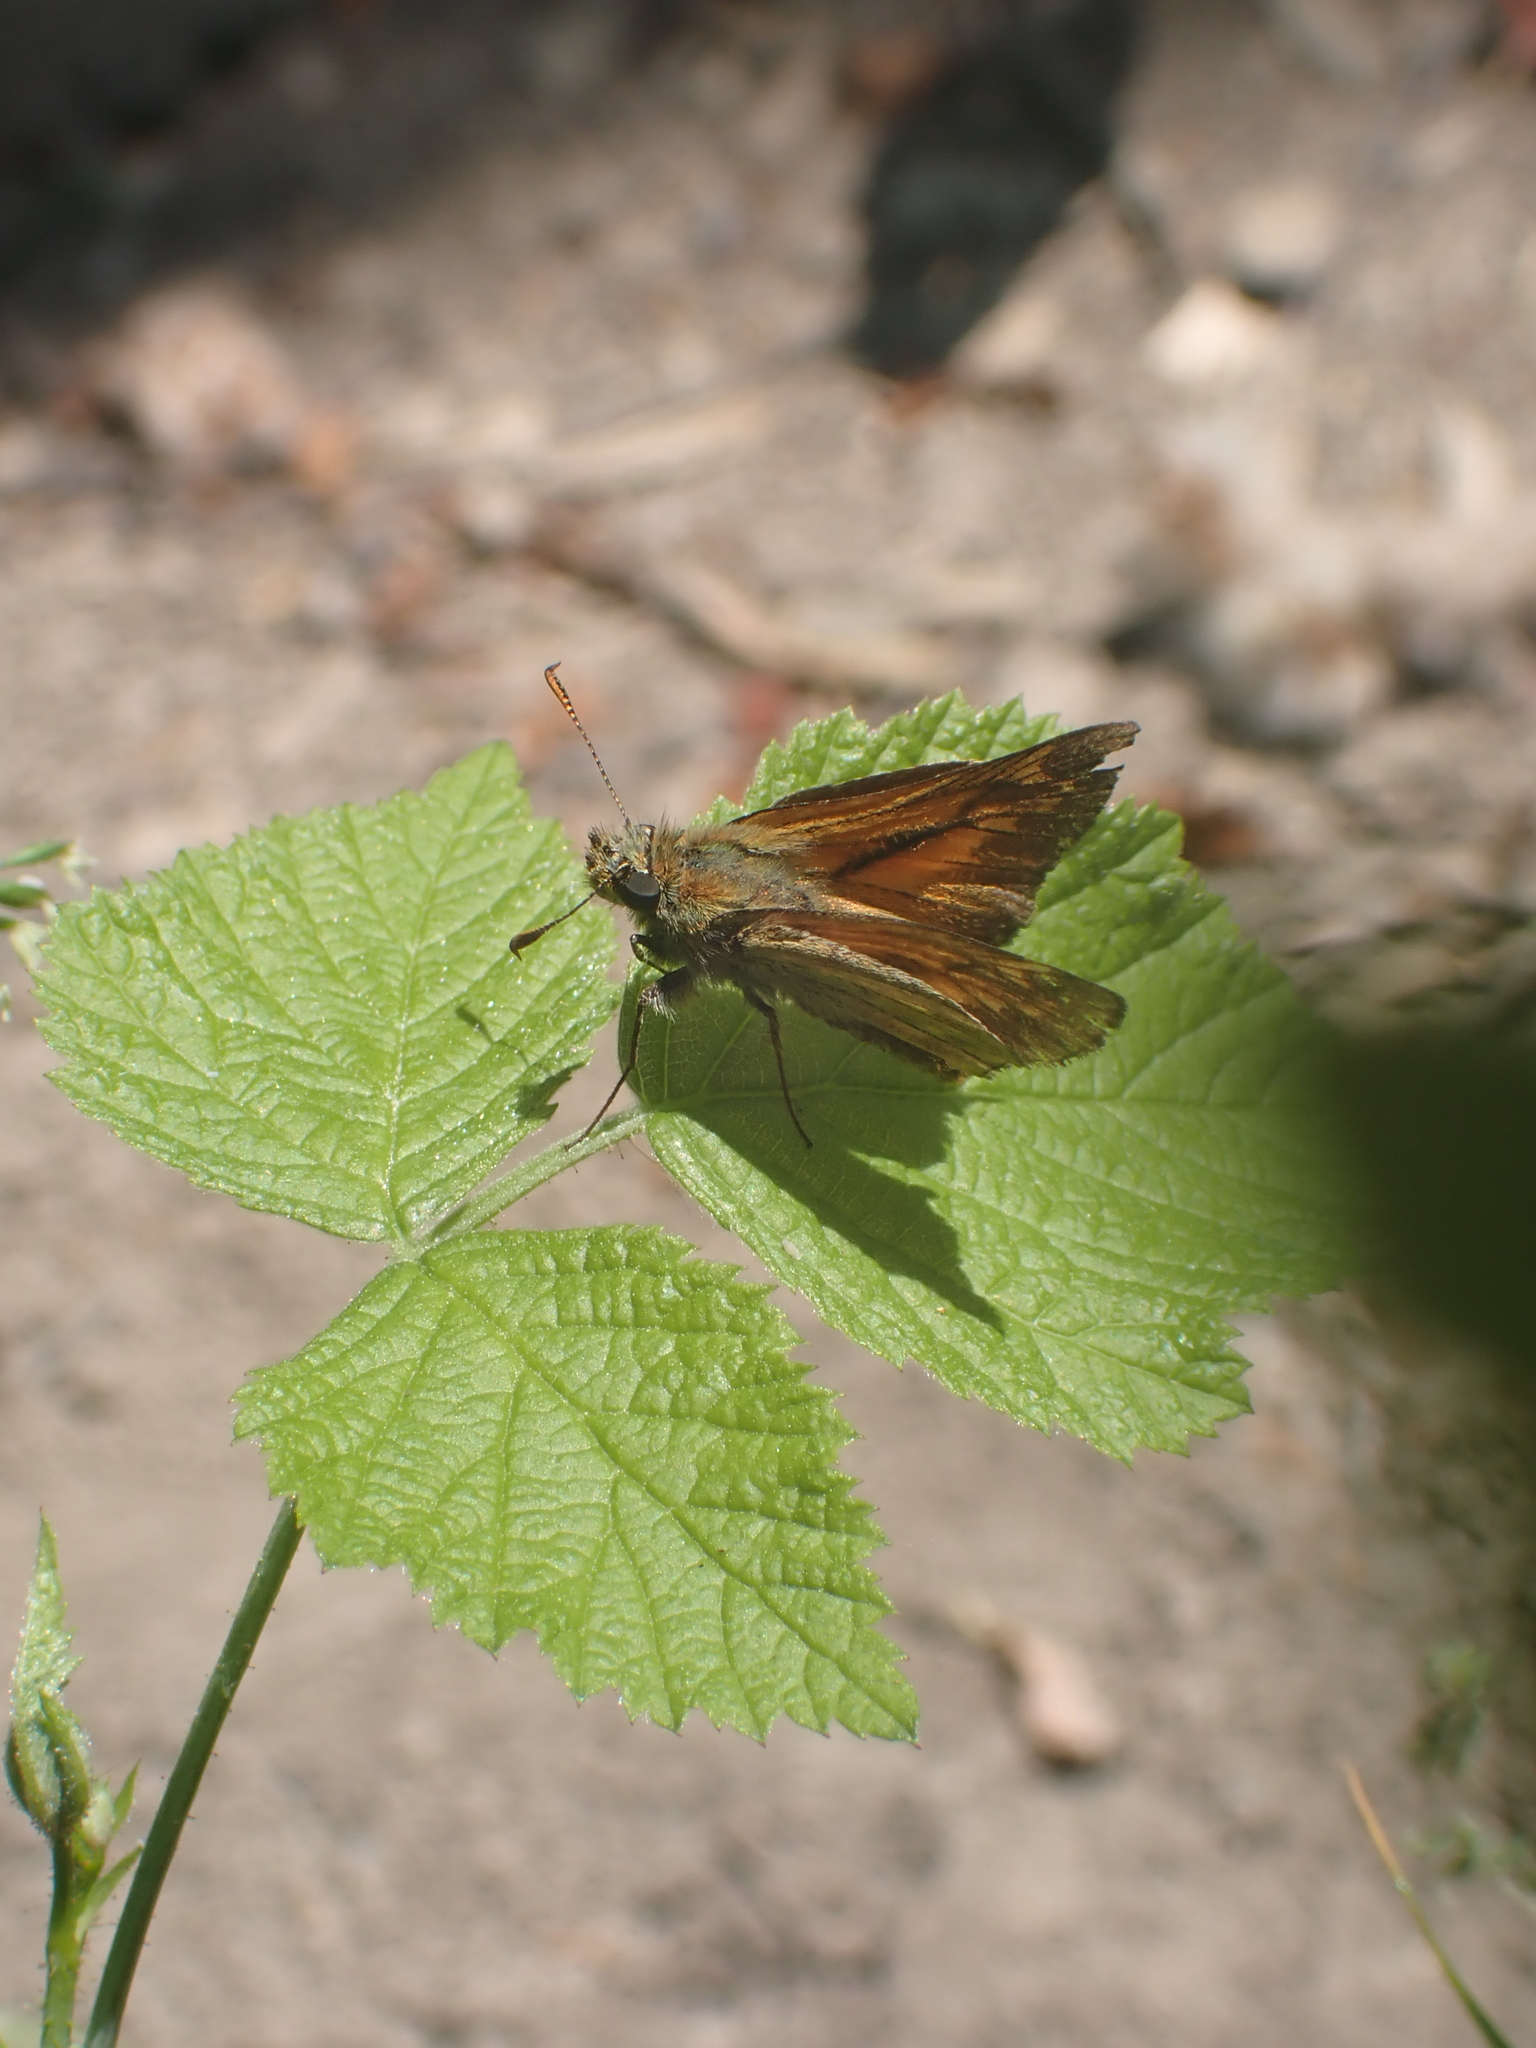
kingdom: Animalia
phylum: Arthropoda
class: Insecta
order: Lepidoptera
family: Hesperiidae
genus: Ochlodes
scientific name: Ochlodes venata
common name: Large skipper
